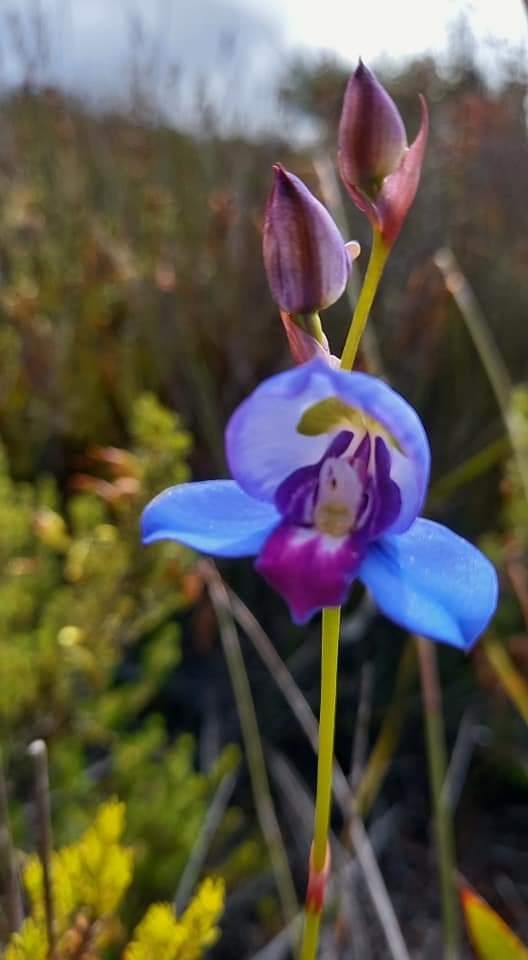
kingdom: Plantae
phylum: Tracheophyta
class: Liliopsida
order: Asparagales
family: Orchidaceae
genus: Disa
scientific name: Disa graminifolia
